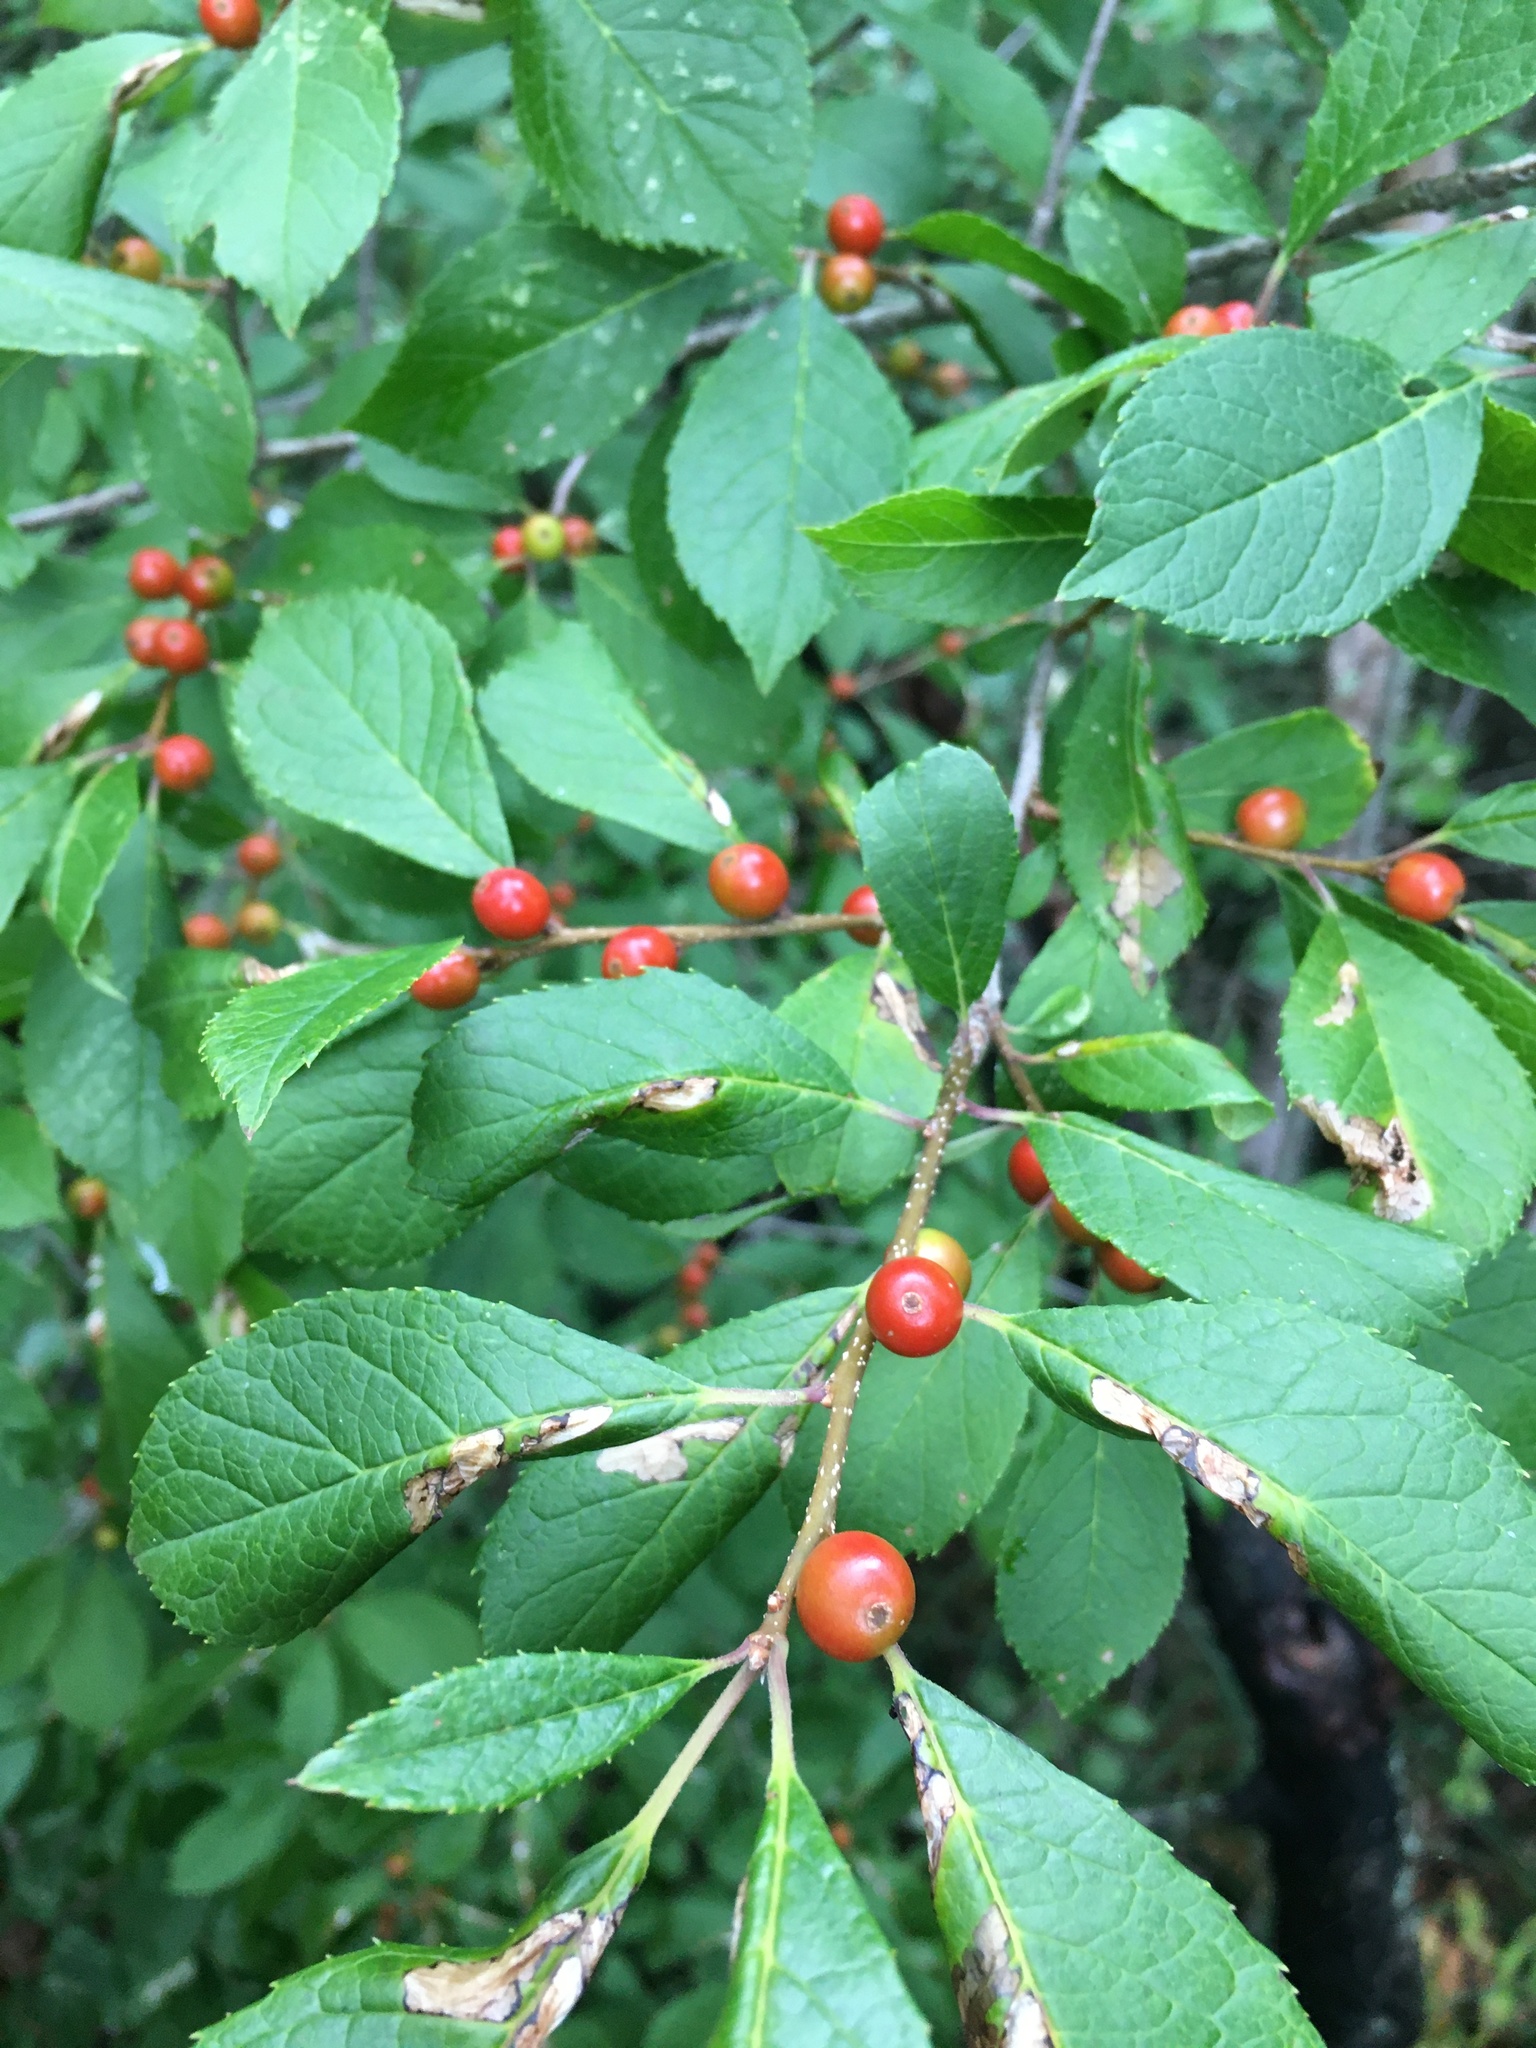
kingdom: Plantae
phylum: Tracheophyta
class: Magnoliopsida
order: Aquifoliales
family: Aquifoliaceae
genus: Ilex
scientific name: Ilex verticillata
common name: Virginia winterberry
